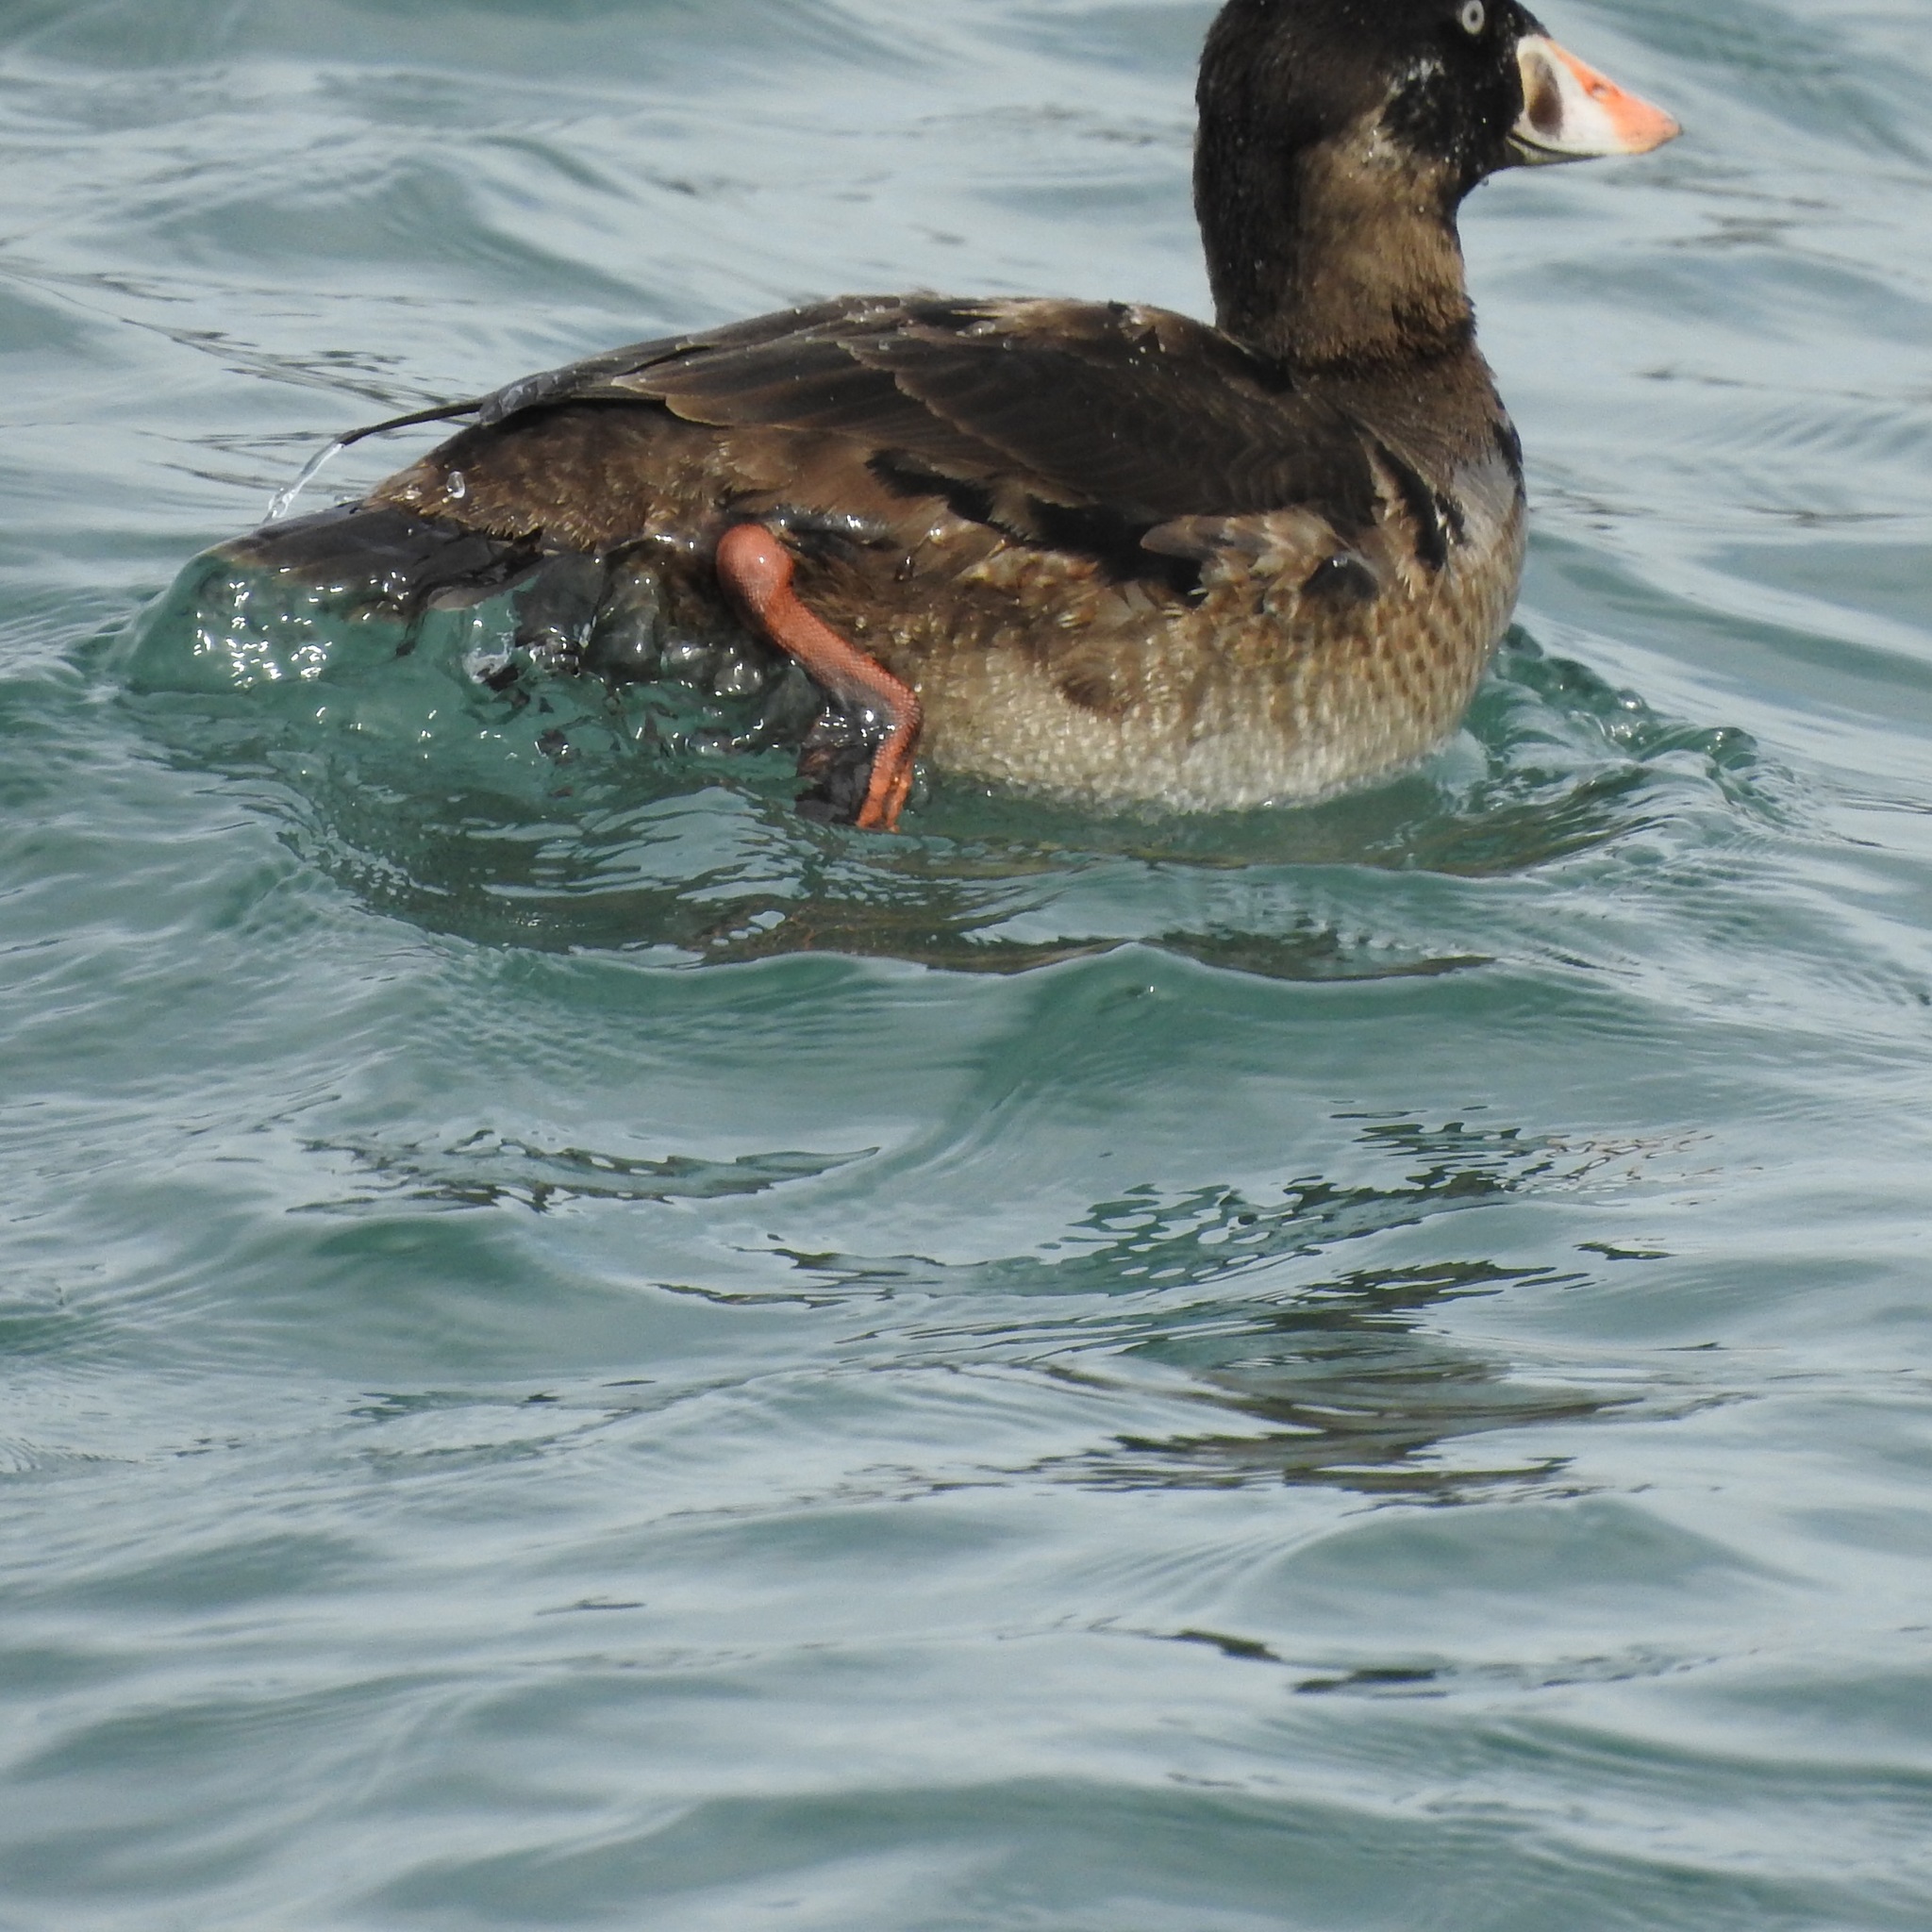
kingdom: Animalia
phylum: Chordata
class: Aves
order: Anseriformes
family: Anatidae
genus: Melanitta
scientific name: Melanitta perspicillata
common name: Surf scoter
